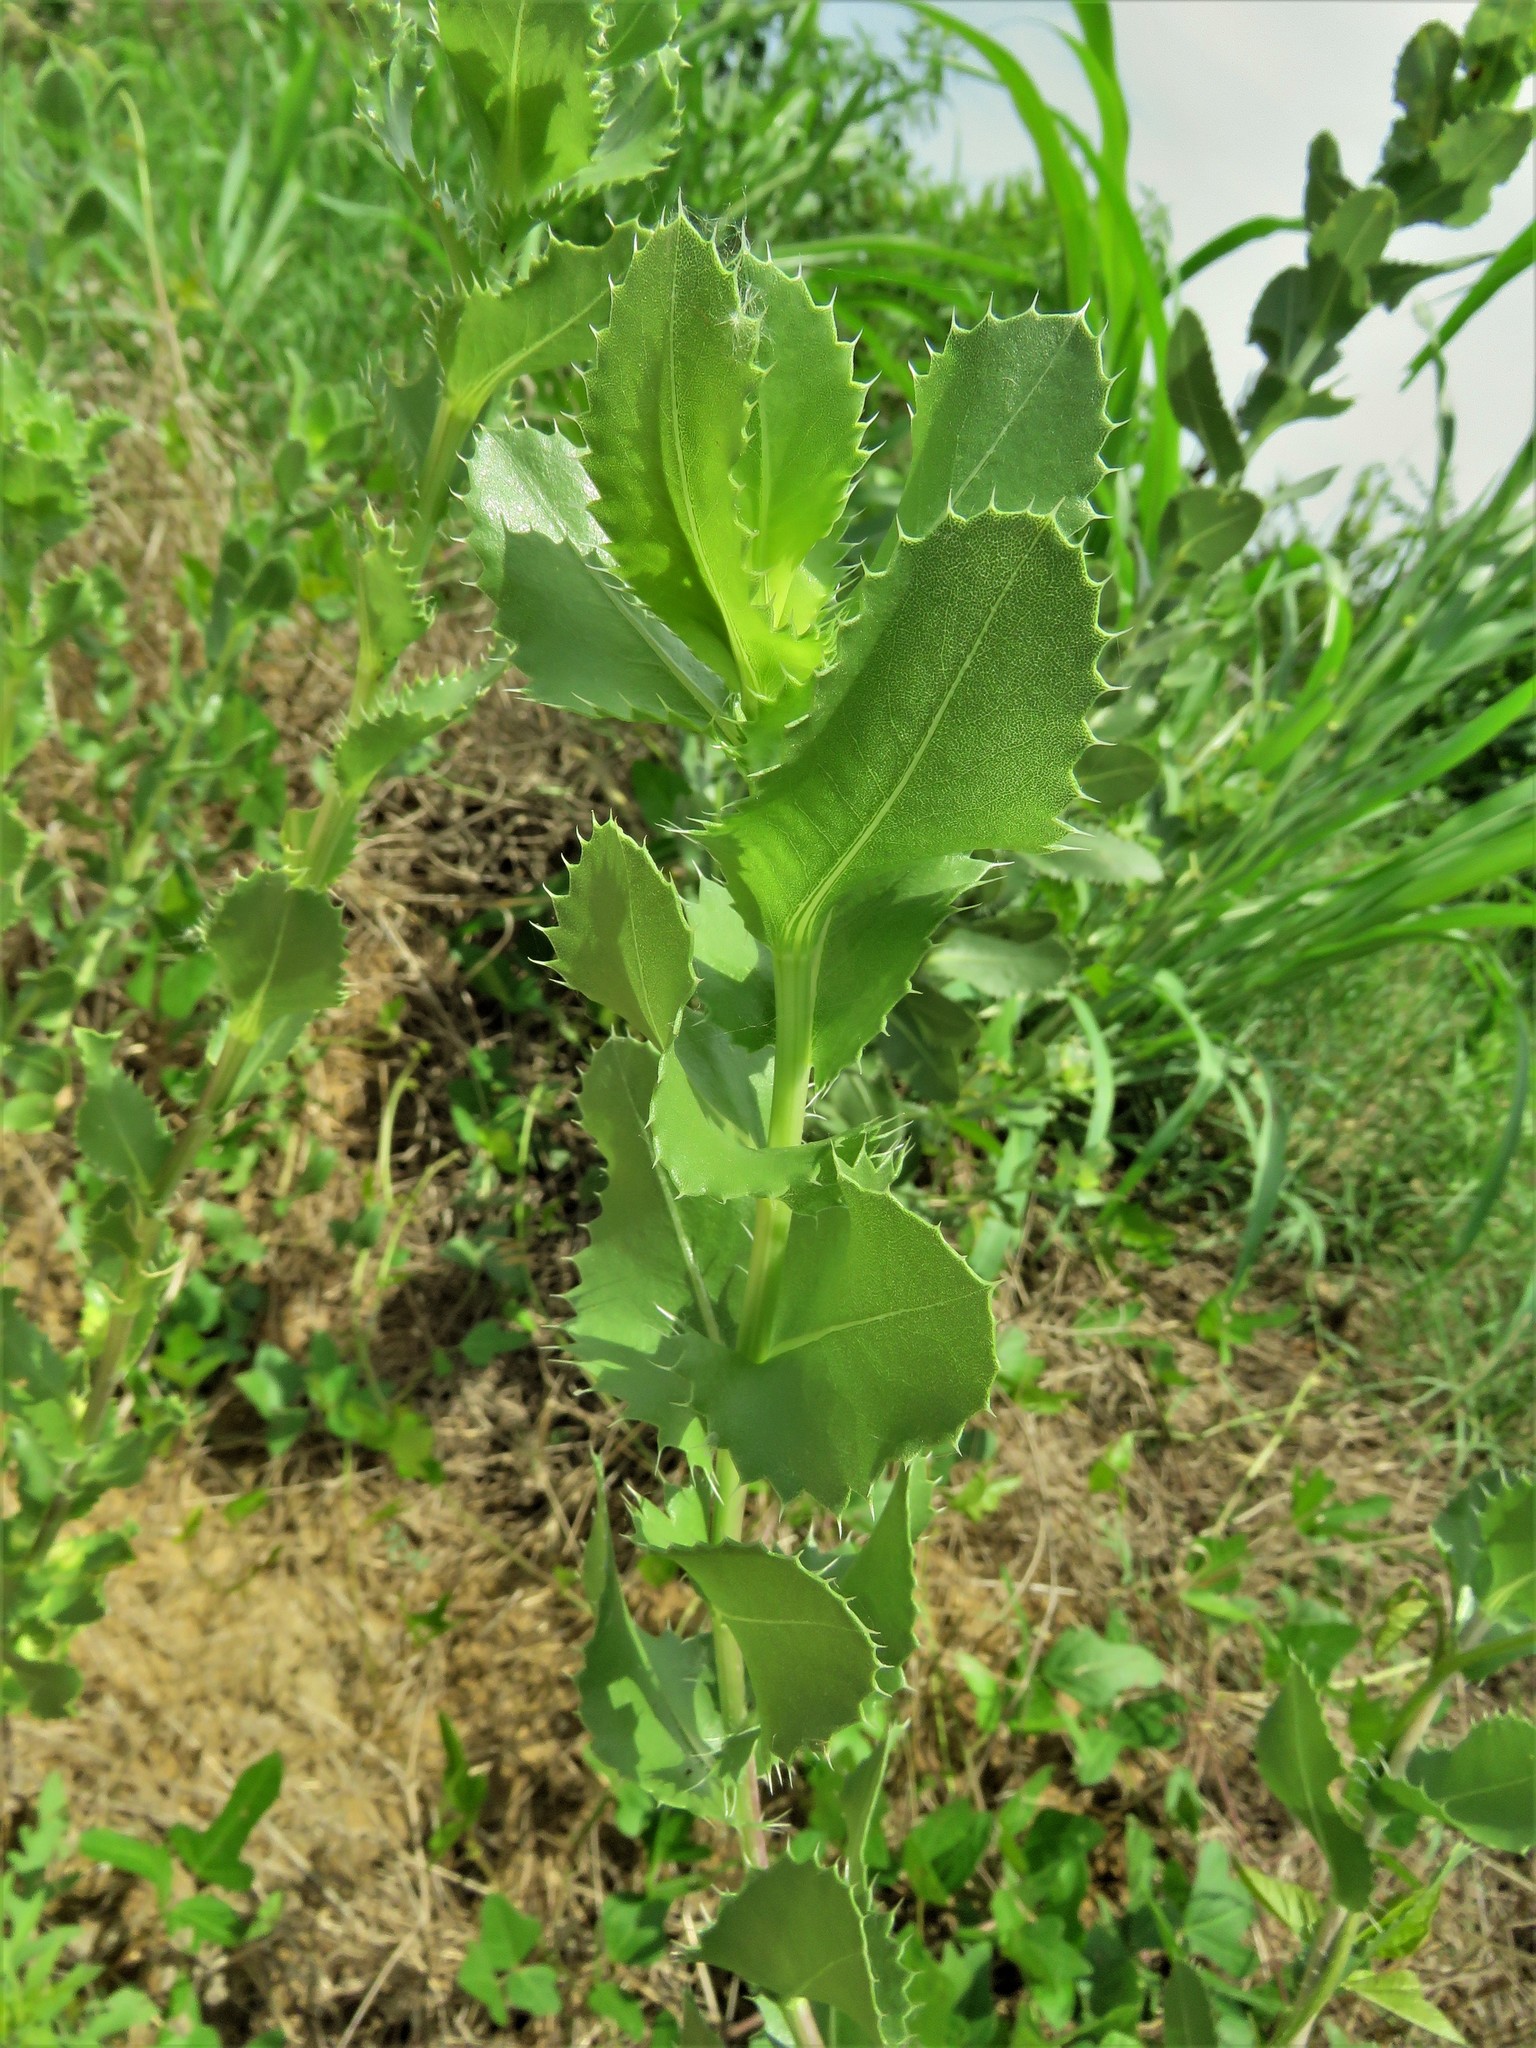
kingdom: Plantae
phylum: Tracheophyta
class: Magnoliopsida
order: Asterales
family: Asteraceae
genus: Grindelia
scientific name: Grindelia ciliata
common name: Goldenweed
